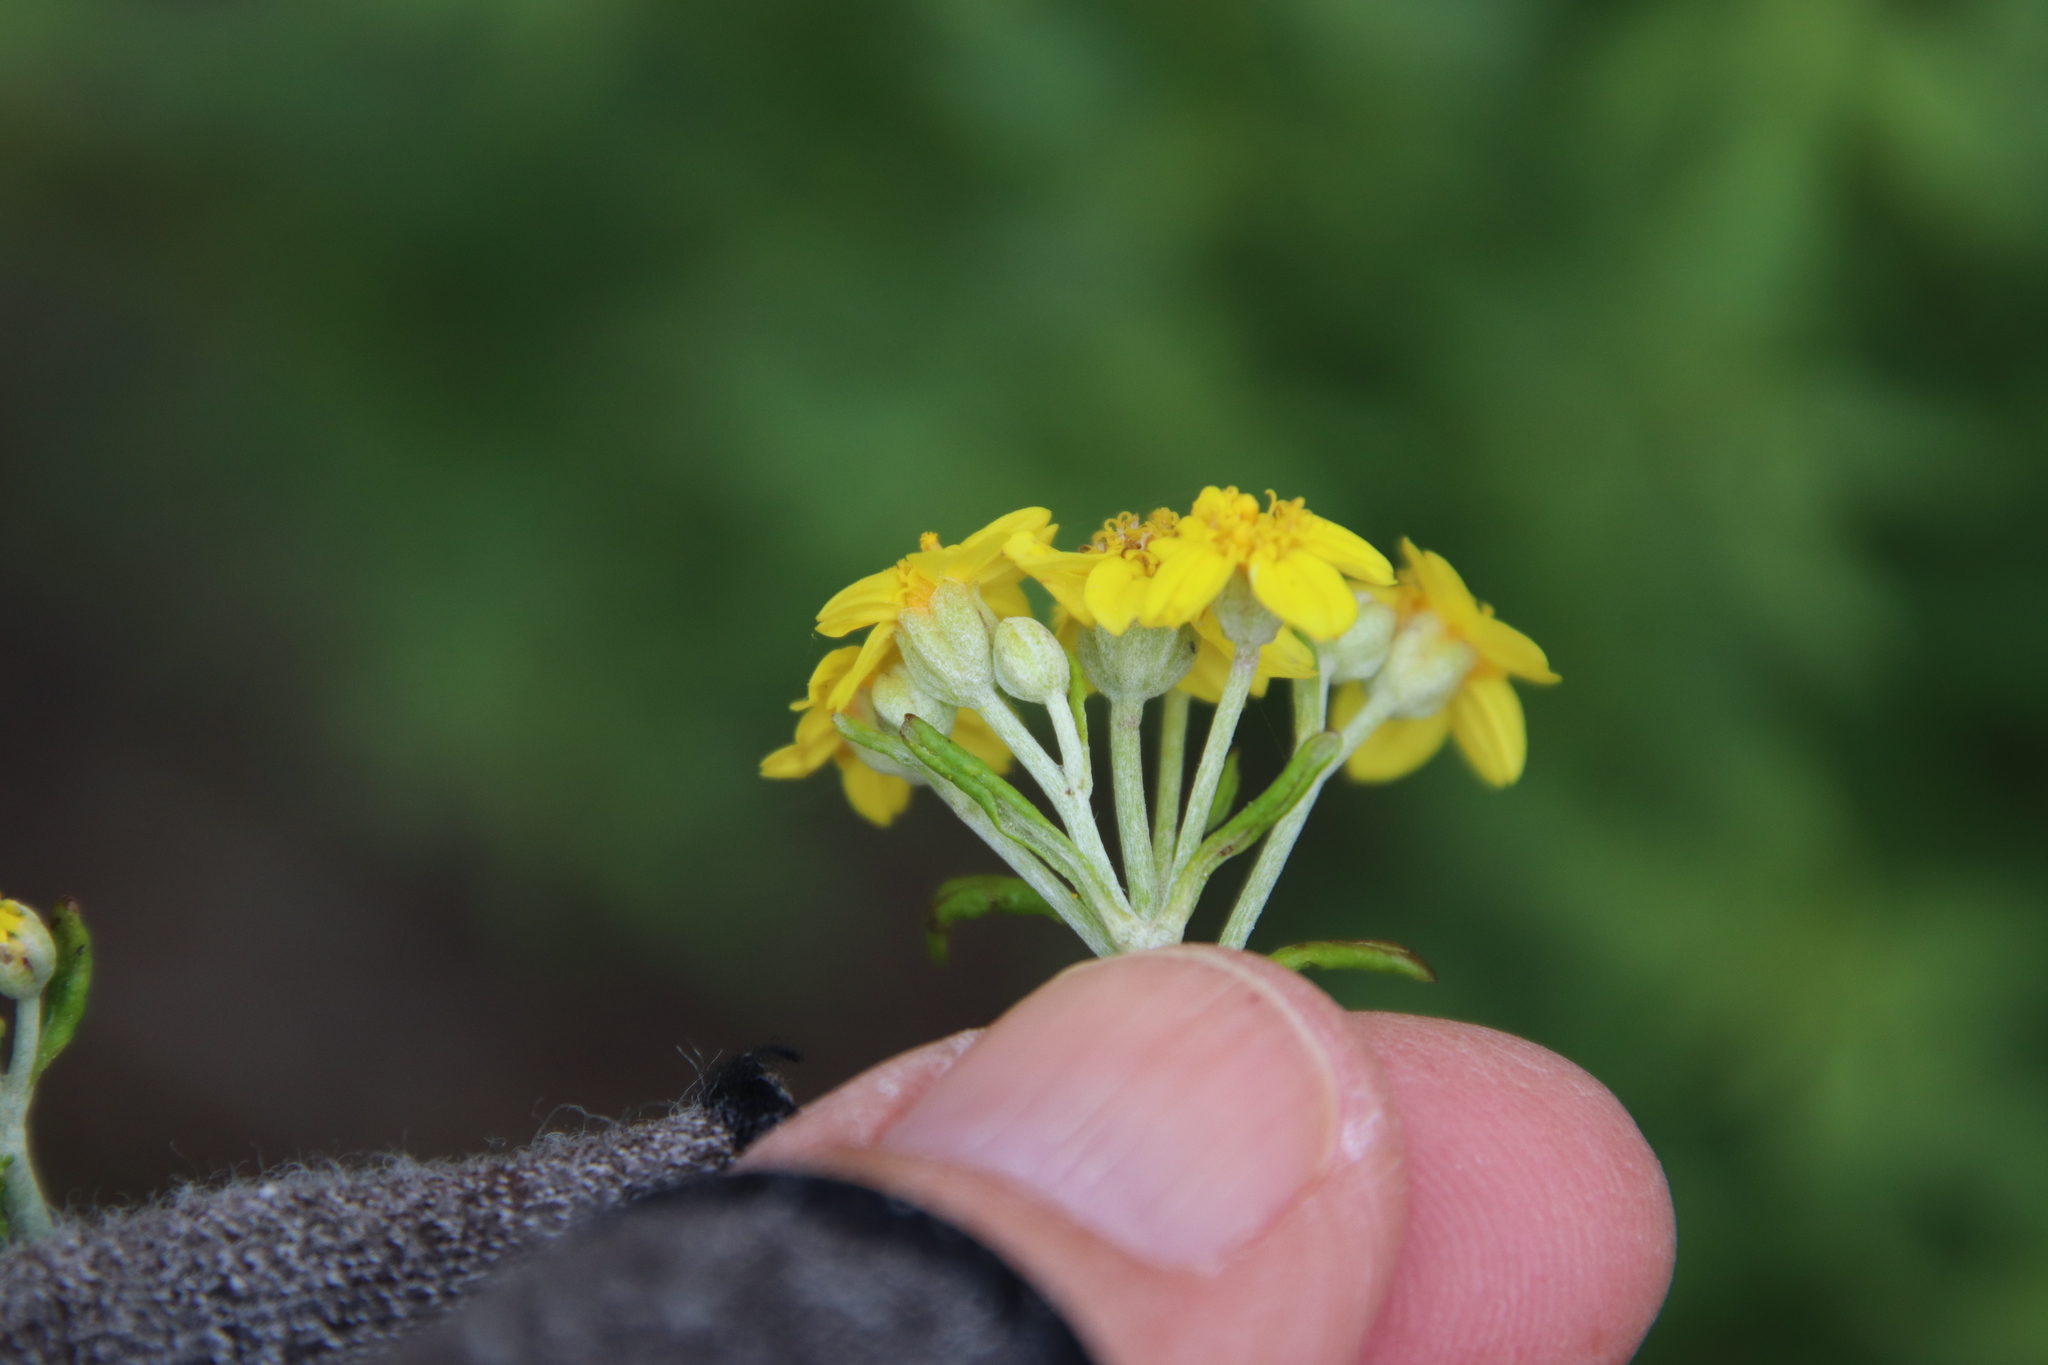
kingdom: Plantae
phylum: Tracheophyta
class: Magnoliopsida
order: Asterales
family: Asteraceae
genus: Eriophyllum
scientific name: Eriophyllum confertiflorum
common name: Golden-yarrow
